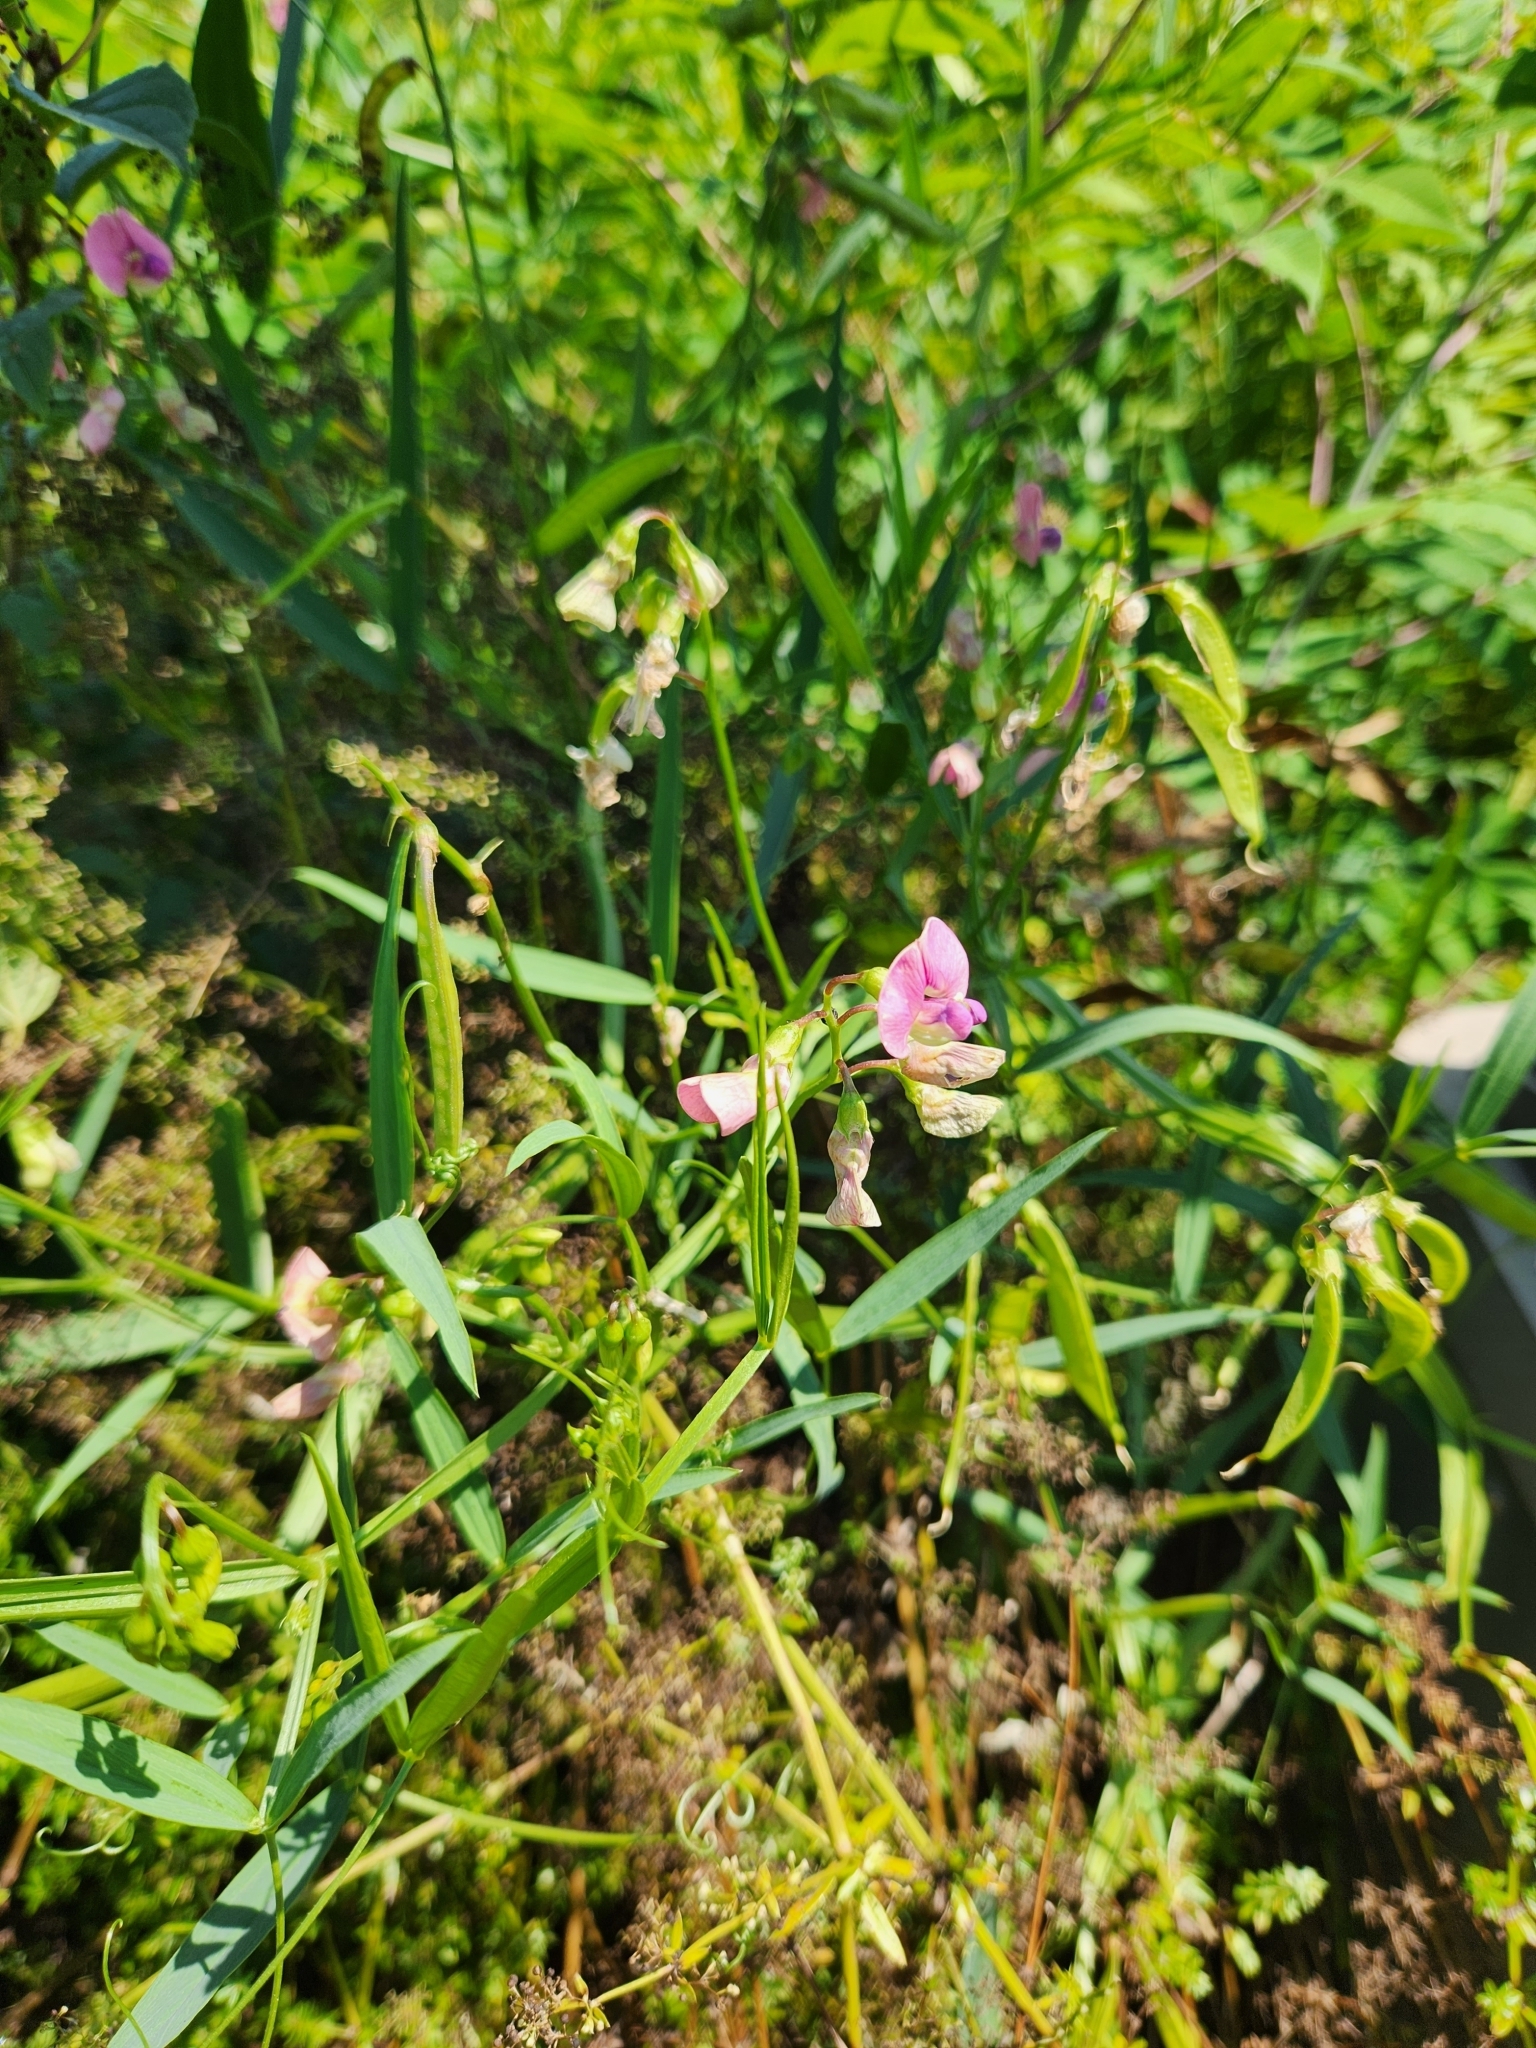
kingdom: Plantae
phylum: Tracheophyta
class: Magnoliopsida
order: Fabales
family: Fabaceae
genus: Lathyrus
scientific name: Lathyrus sylvestris
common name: Flat pea
